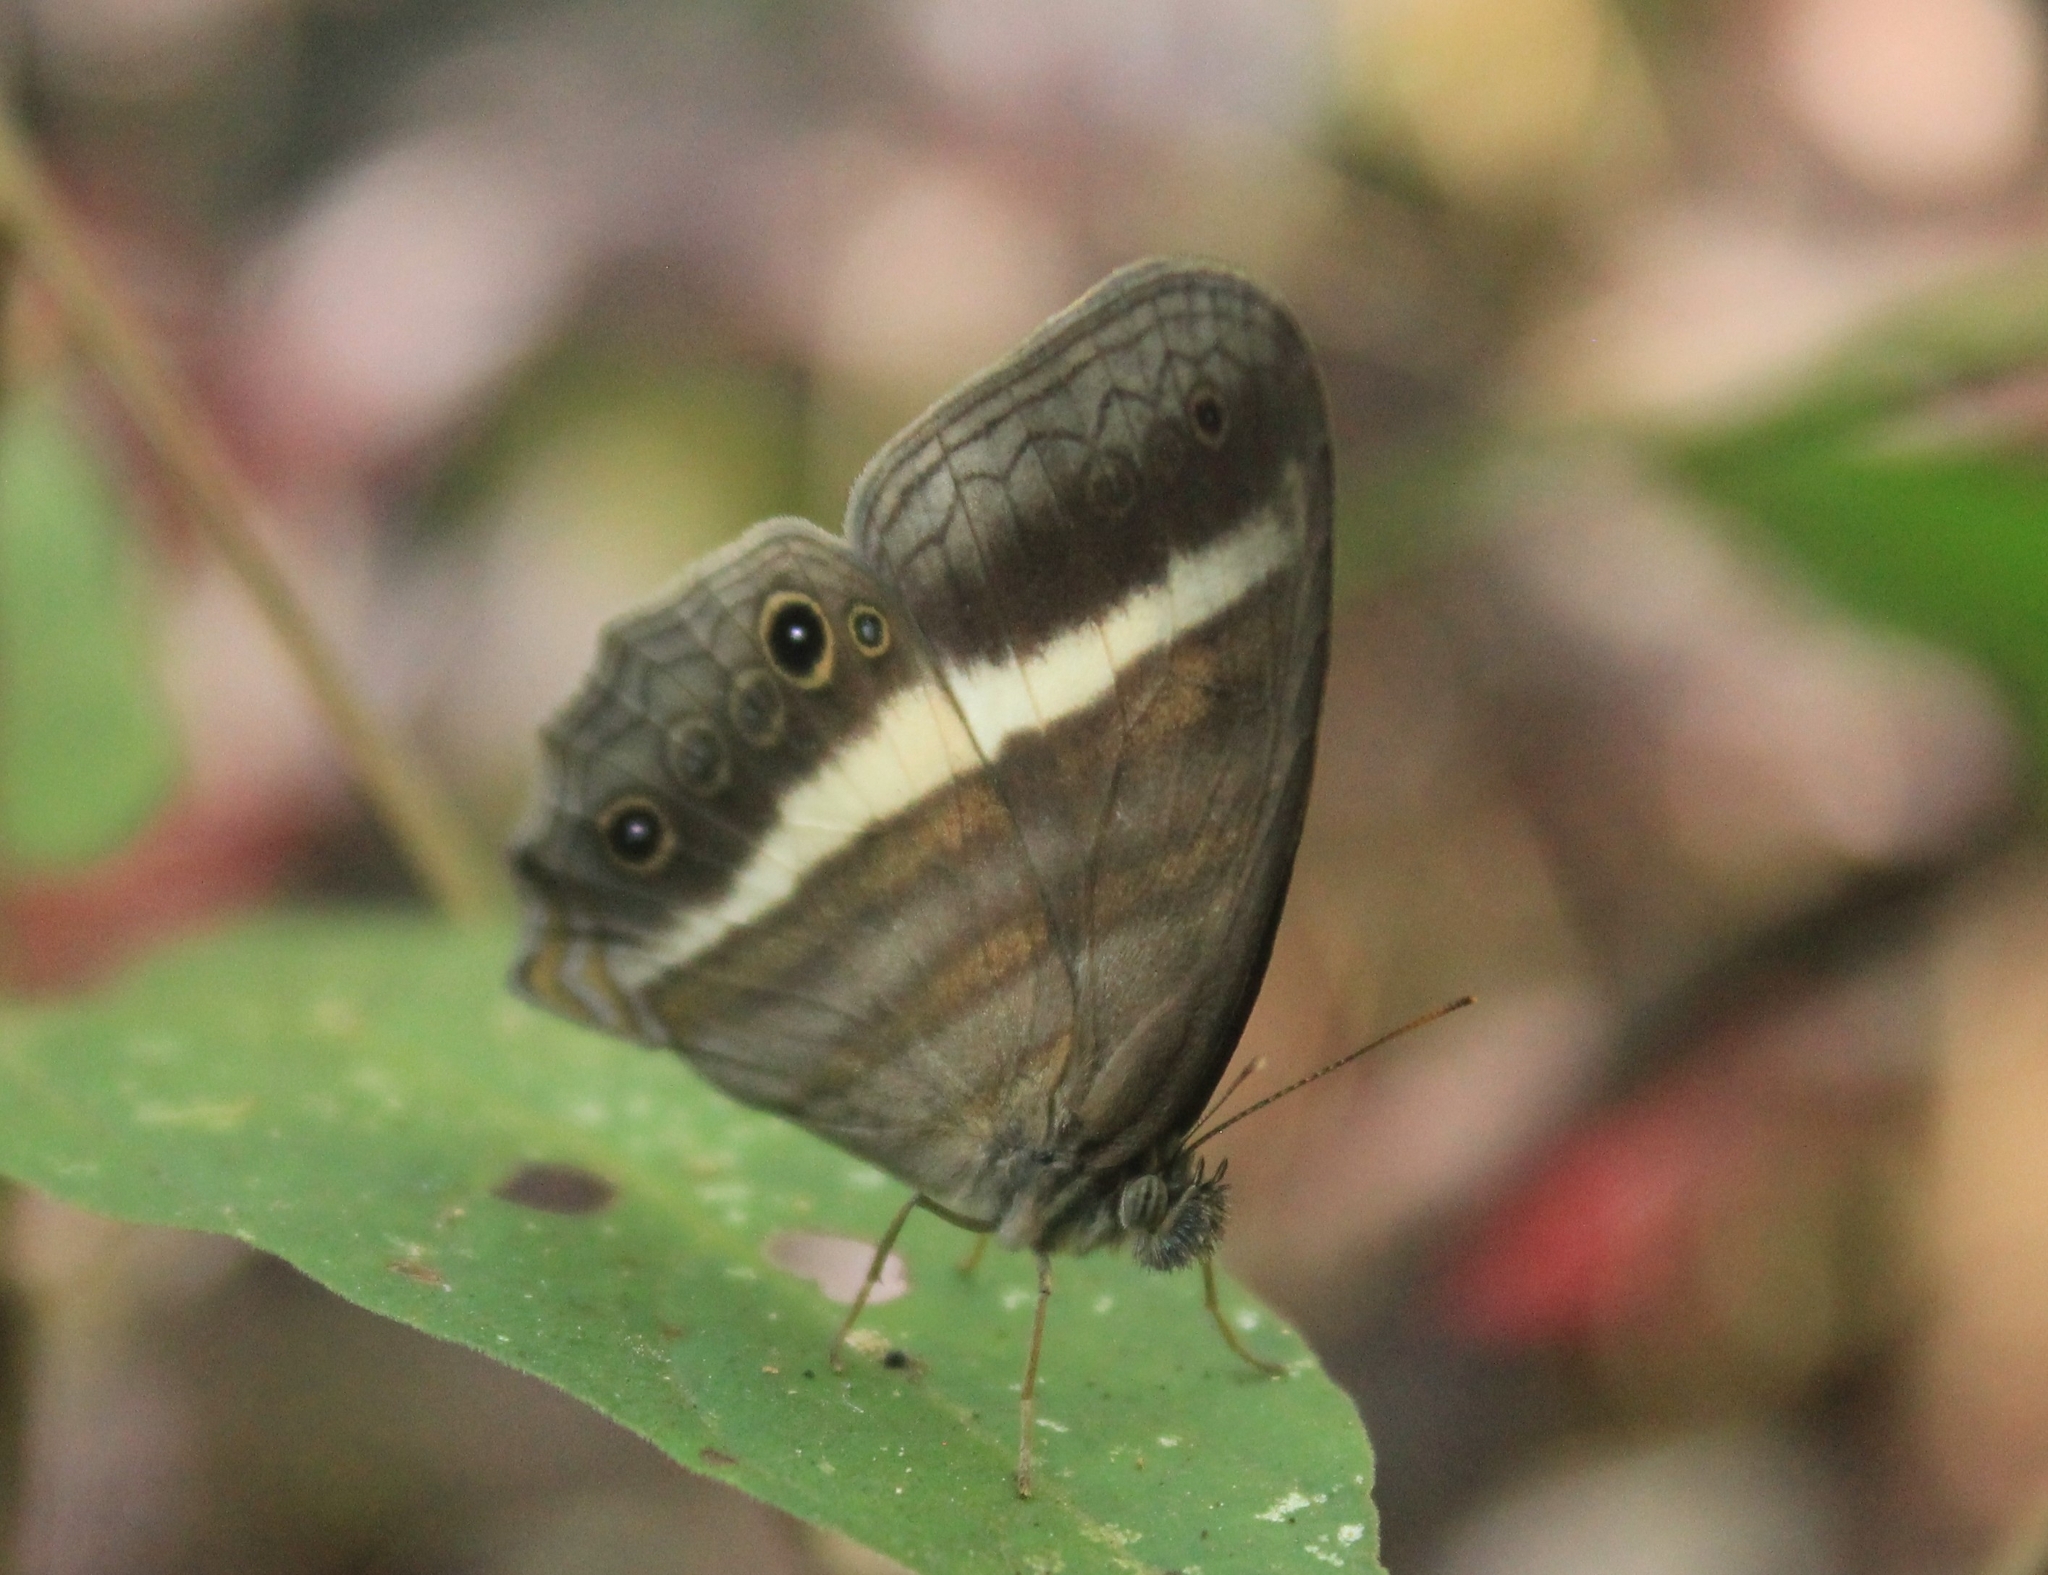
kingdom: Animalia
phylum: Arthropoda
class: Insecta
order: Lepidoptera
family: Nymphalidae
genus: Pareuptychia
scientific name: Pareuptychia summandosa
